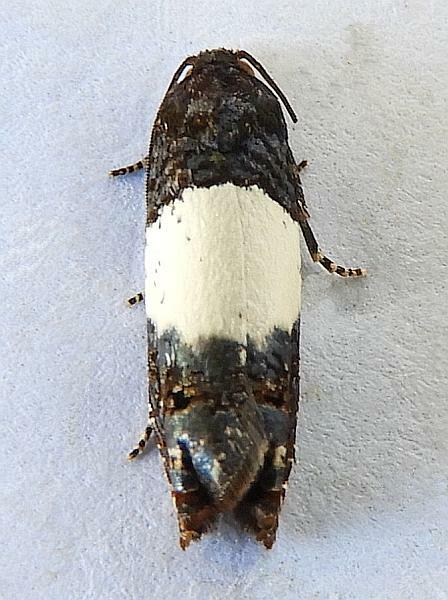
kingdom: Animalia
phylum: Arthropoda
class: Insecta
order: Lepidoptera
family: Tortricidae
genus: Epiblema
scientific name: Epiblema tripartitana
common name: Three-parted epiblema moth
